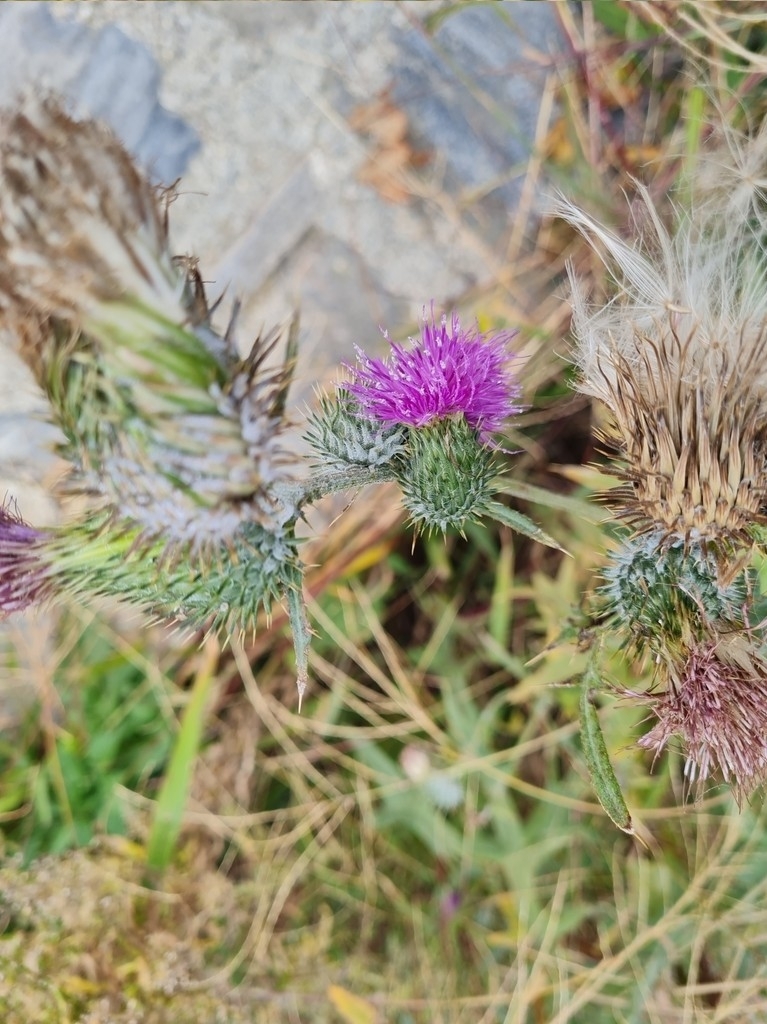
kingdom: Plantae
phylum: Tracheophyta
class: Magnoliopsida
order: Asterales
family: Asteraceae
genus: Cirsium
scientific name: Cirsium vulgare
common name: Bull thistle
